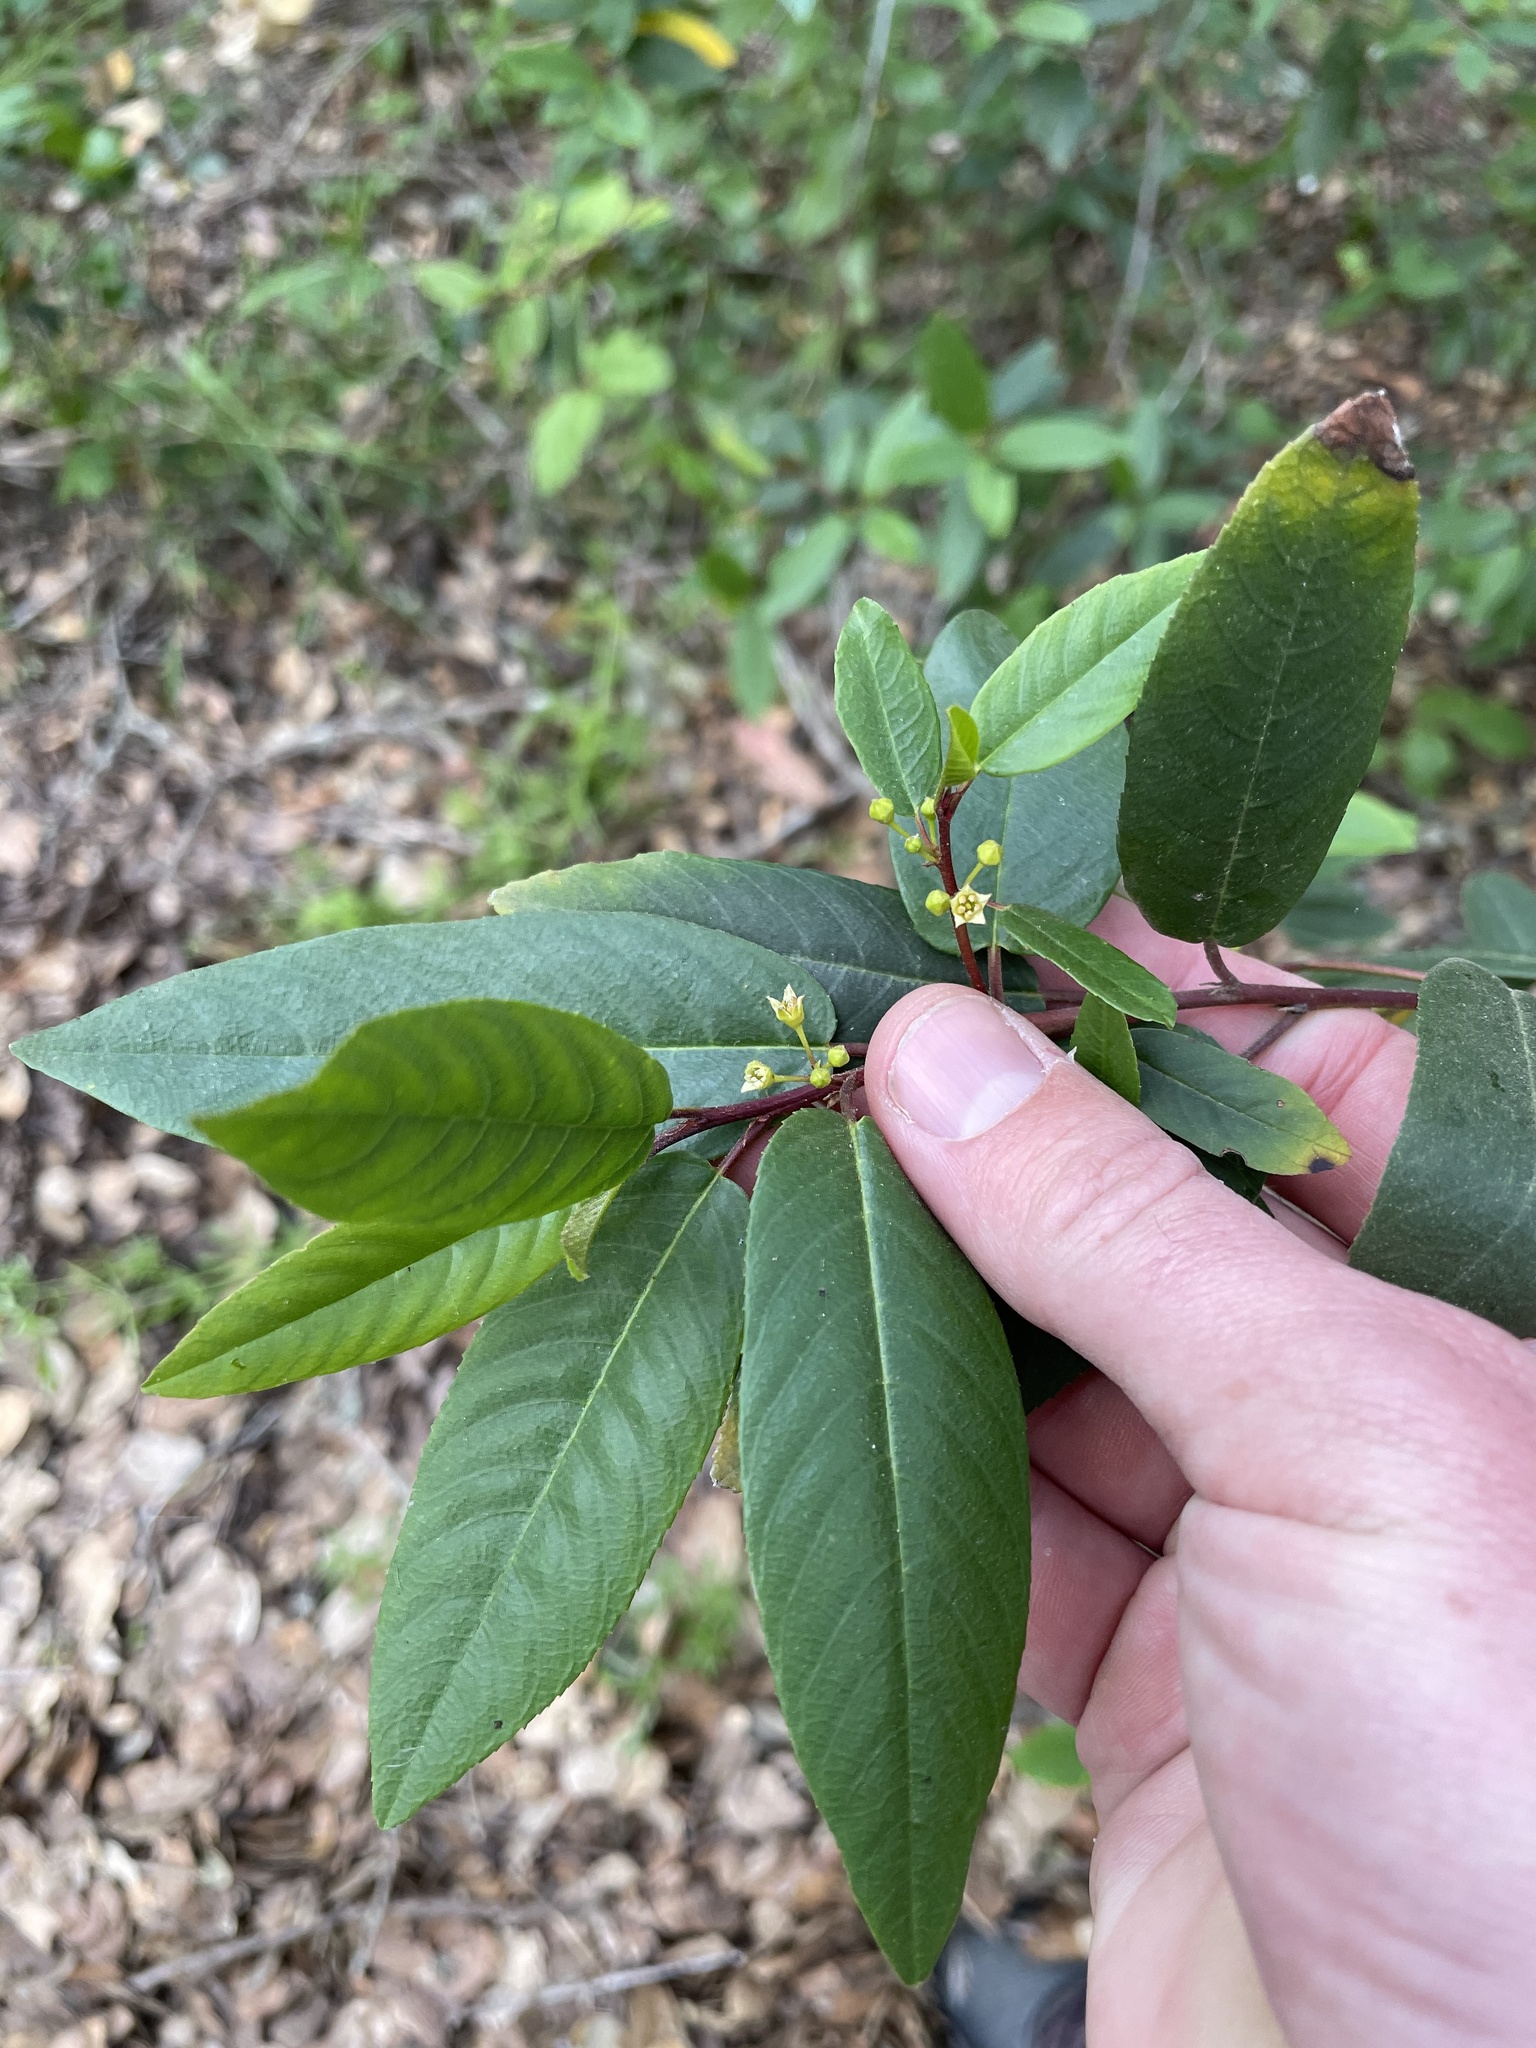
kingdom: Plantae
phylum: Tracheophyta
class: Magnoliopsida
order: Rosales
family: Rhamnaceae
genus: Frangula
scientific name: Frangula californica
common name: California buckthorn
